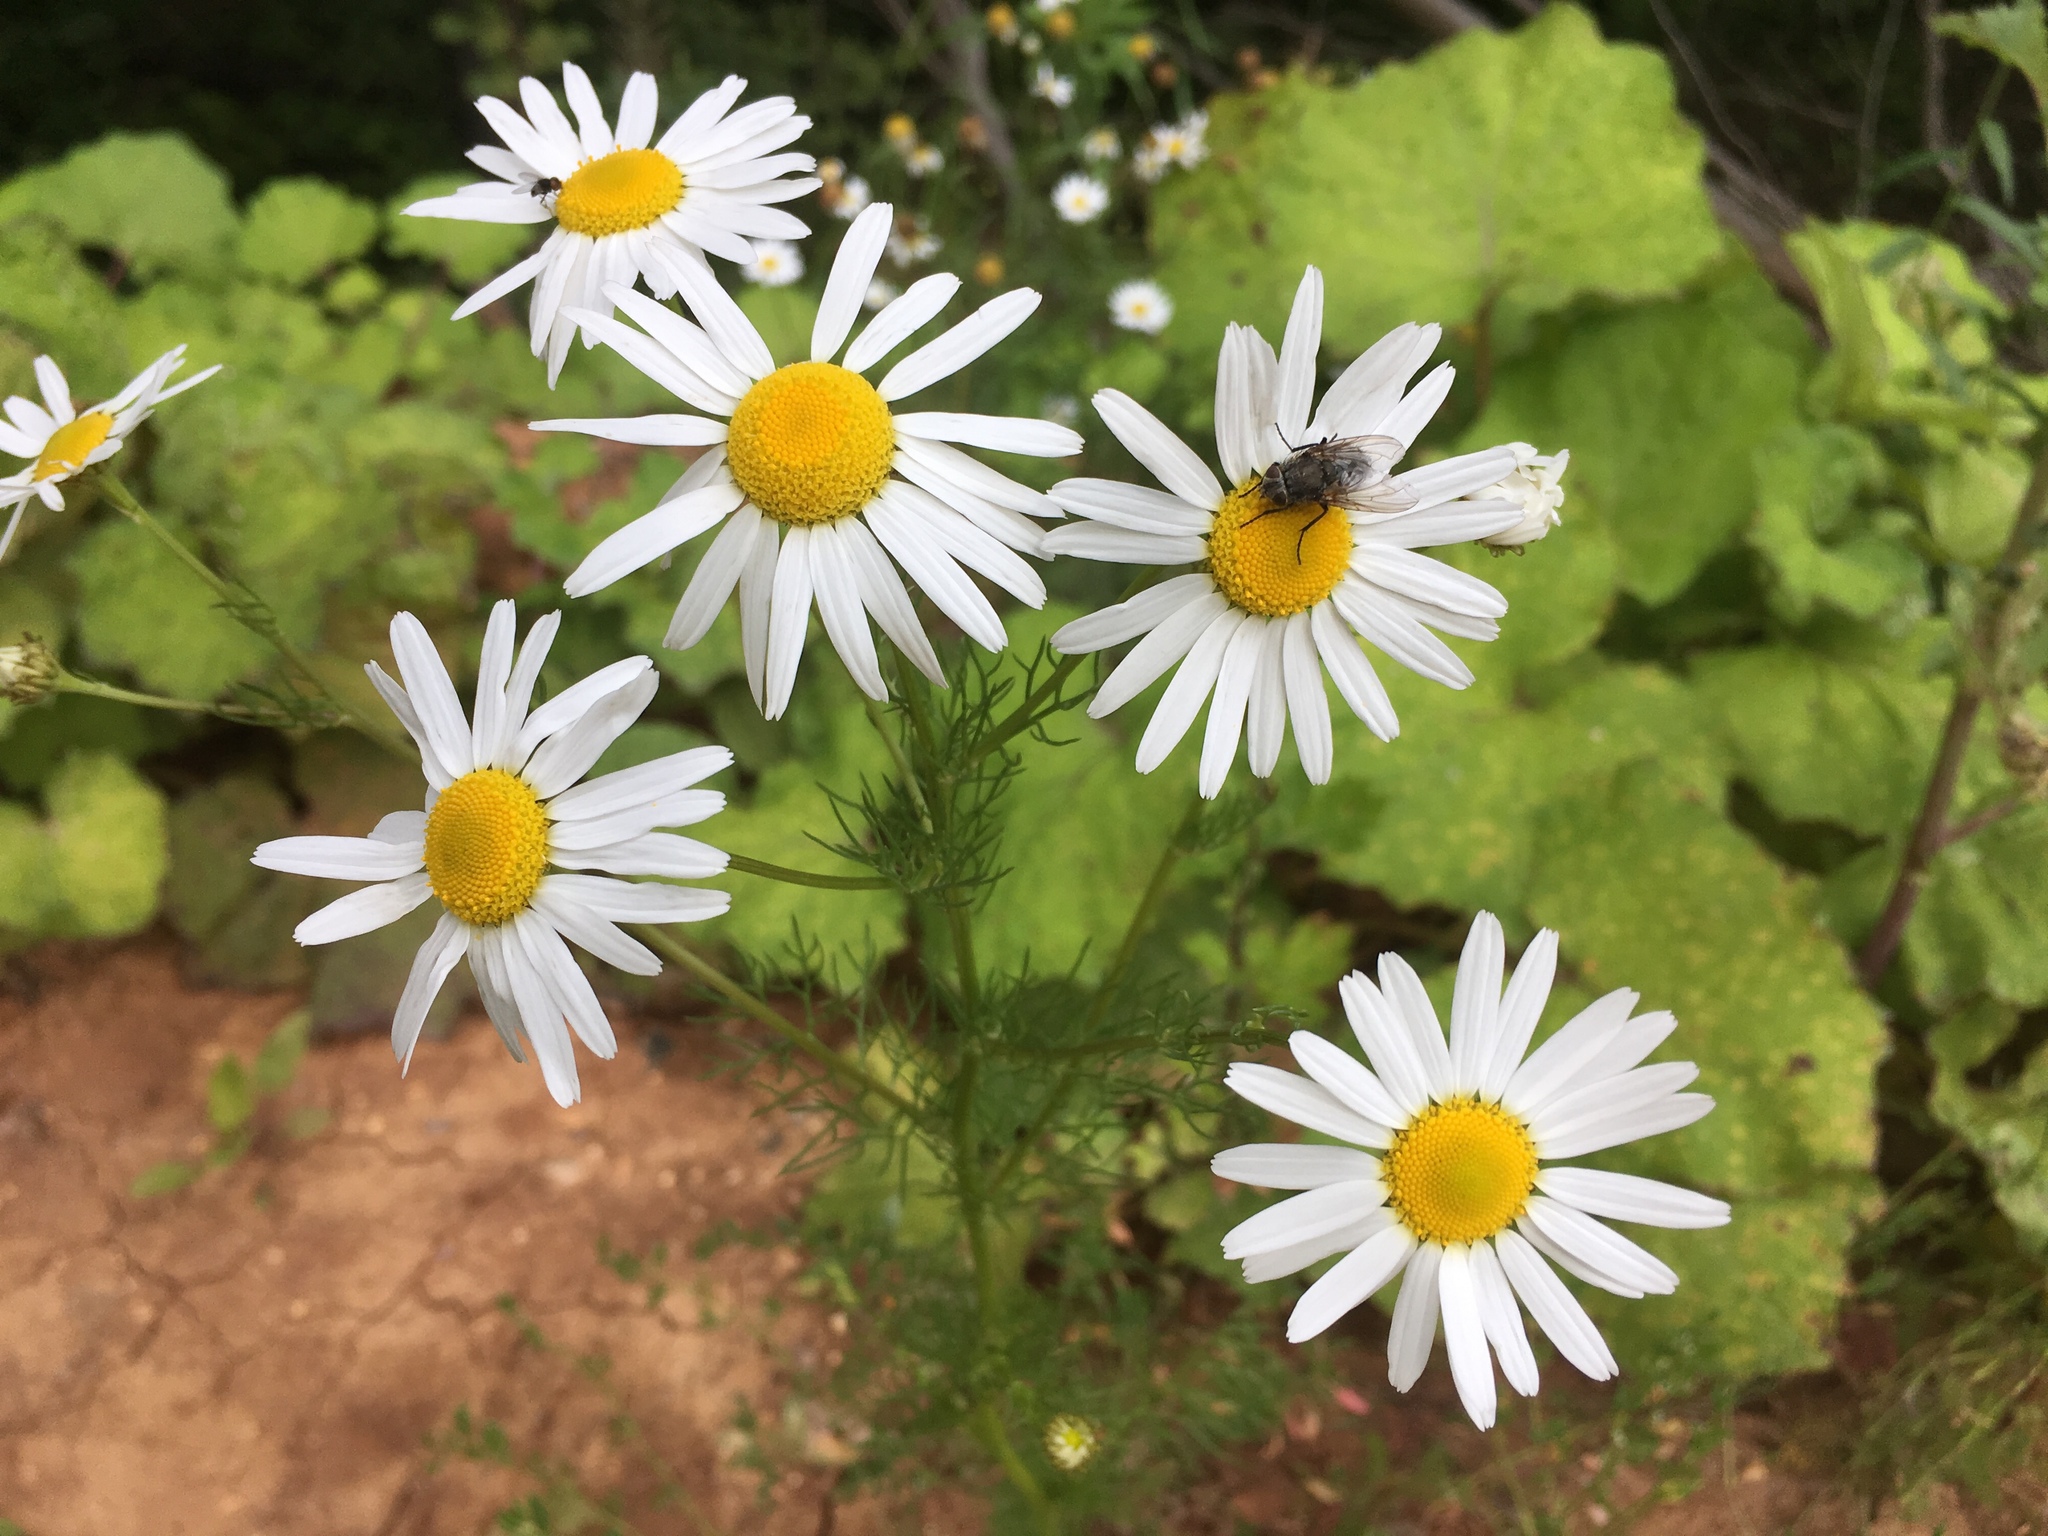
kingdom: Plantae
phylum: Tracheophyta
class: Magnoliopsida
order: Asterales
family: Asteraceae
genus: Tripleurospermum
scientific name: Tripleurospermum inodorum
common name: Scentless mayweed
